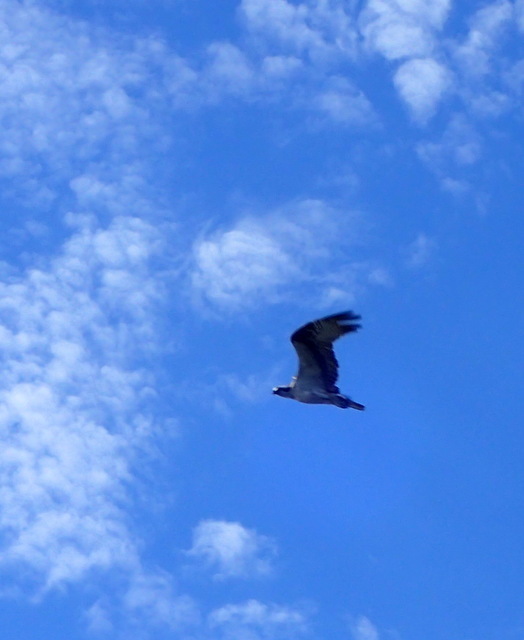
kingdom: Animalia
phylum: Chordata
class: Aves
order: Accipitriformes
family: Pandionidae
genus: Pandion
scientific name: Pandion haliaetus
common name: Osprey
